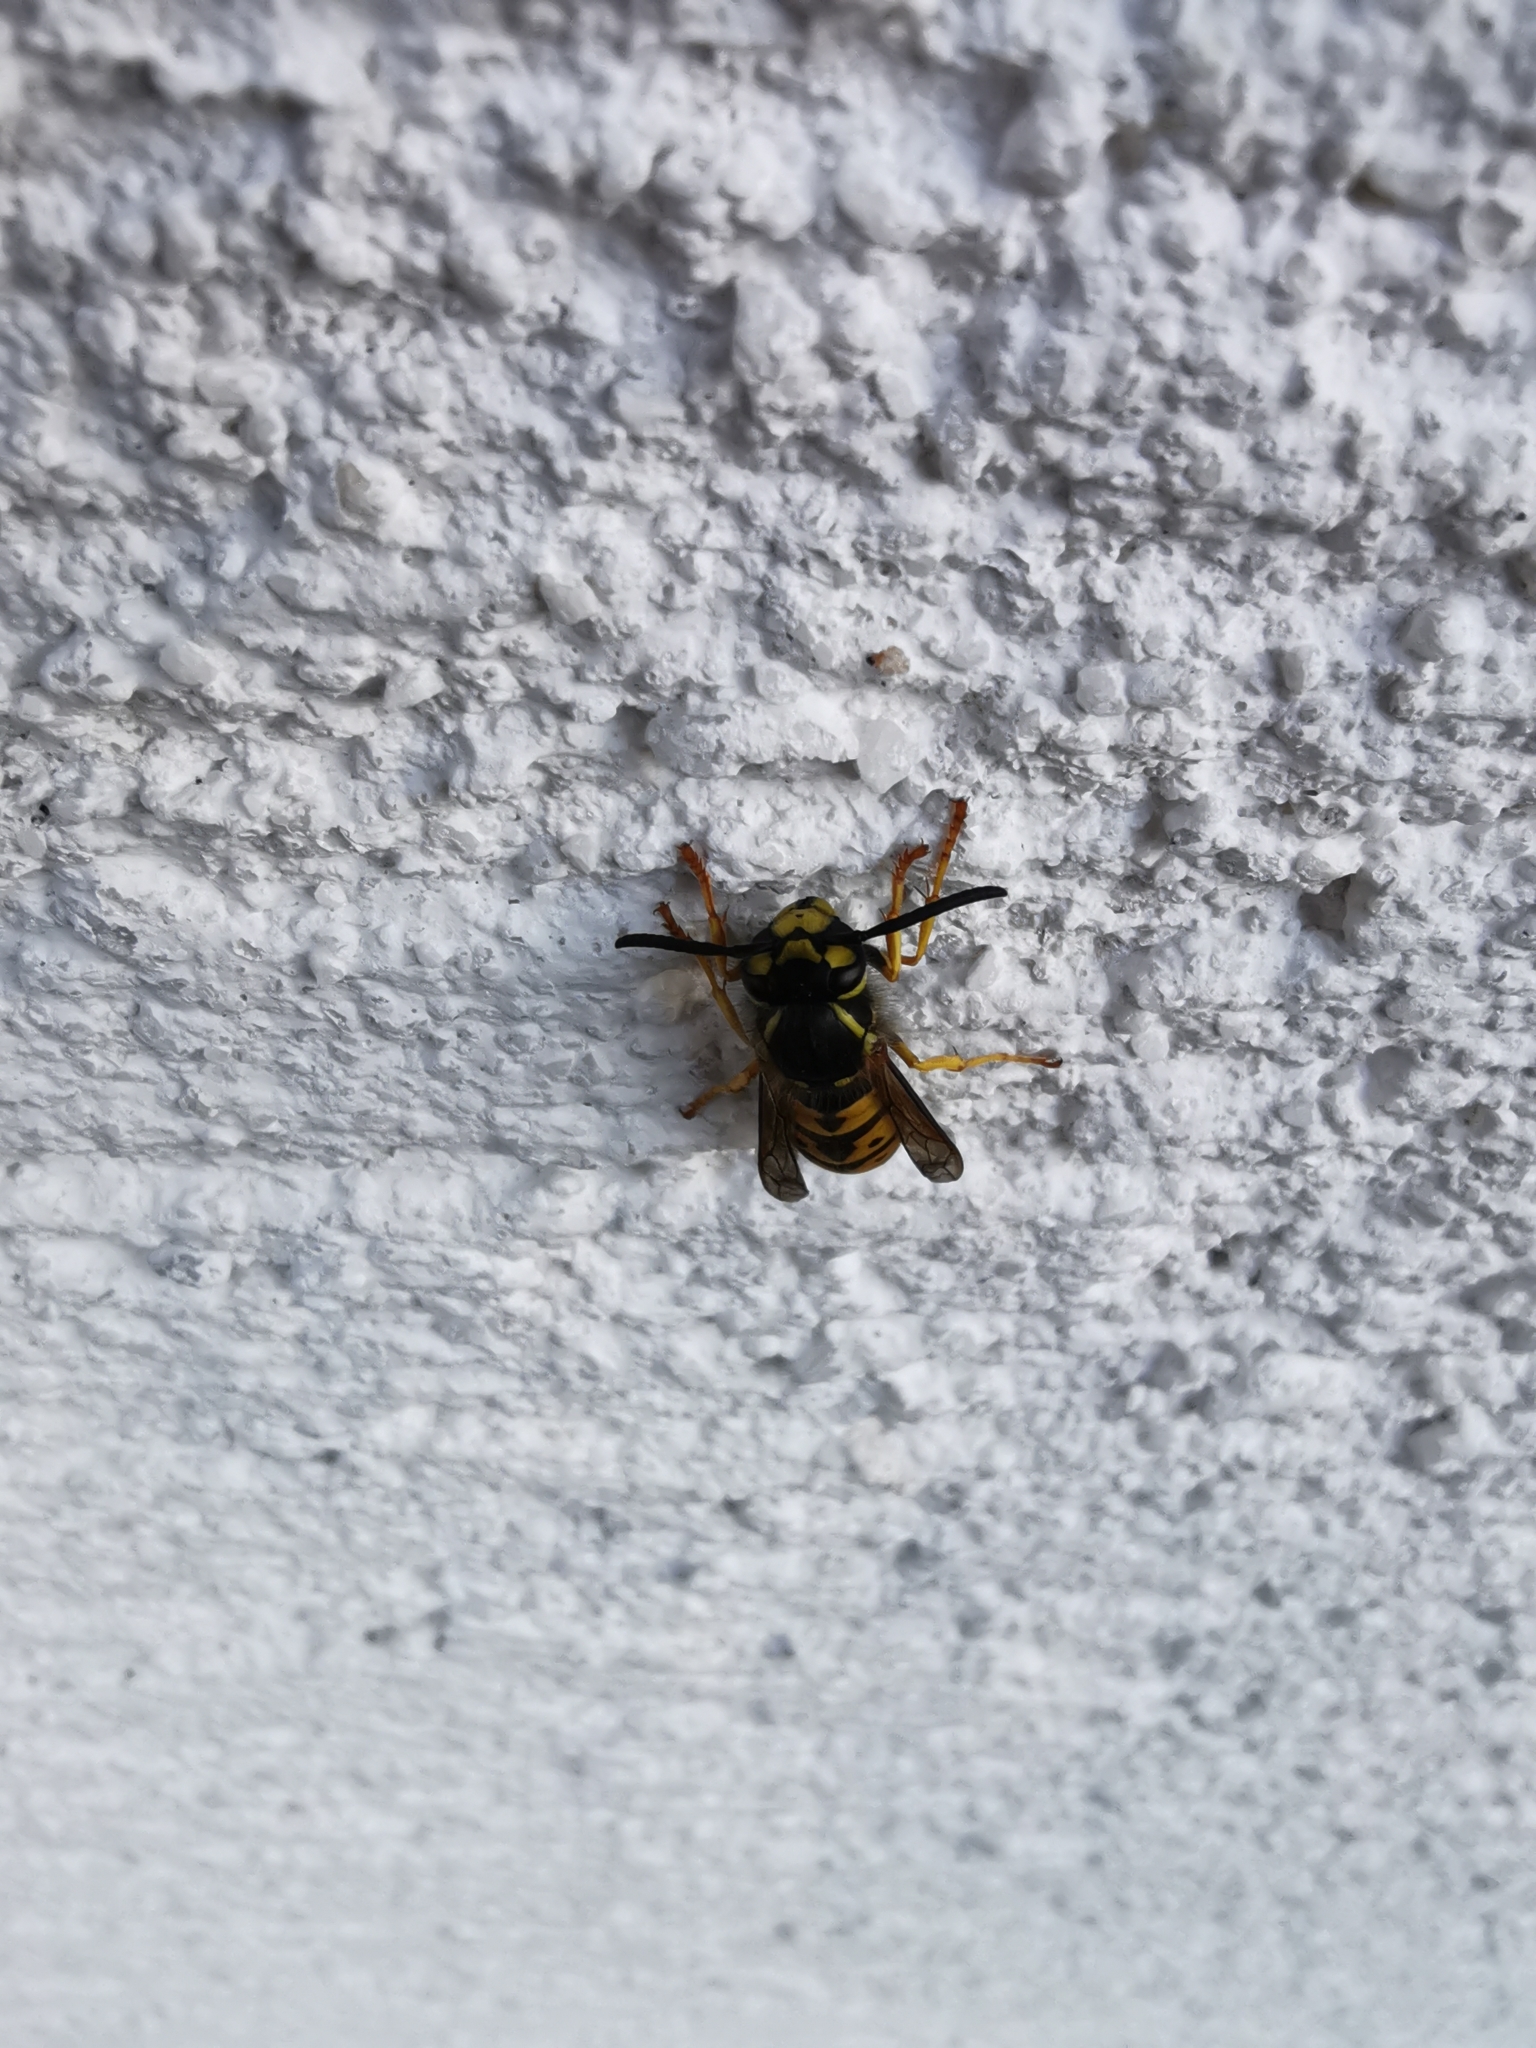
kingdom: Animalia
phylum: Arthropoda
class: Insecta
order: Hymenoptera
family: Vespidae
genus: Vespula
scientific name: Vespula germanica
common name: German wasp
